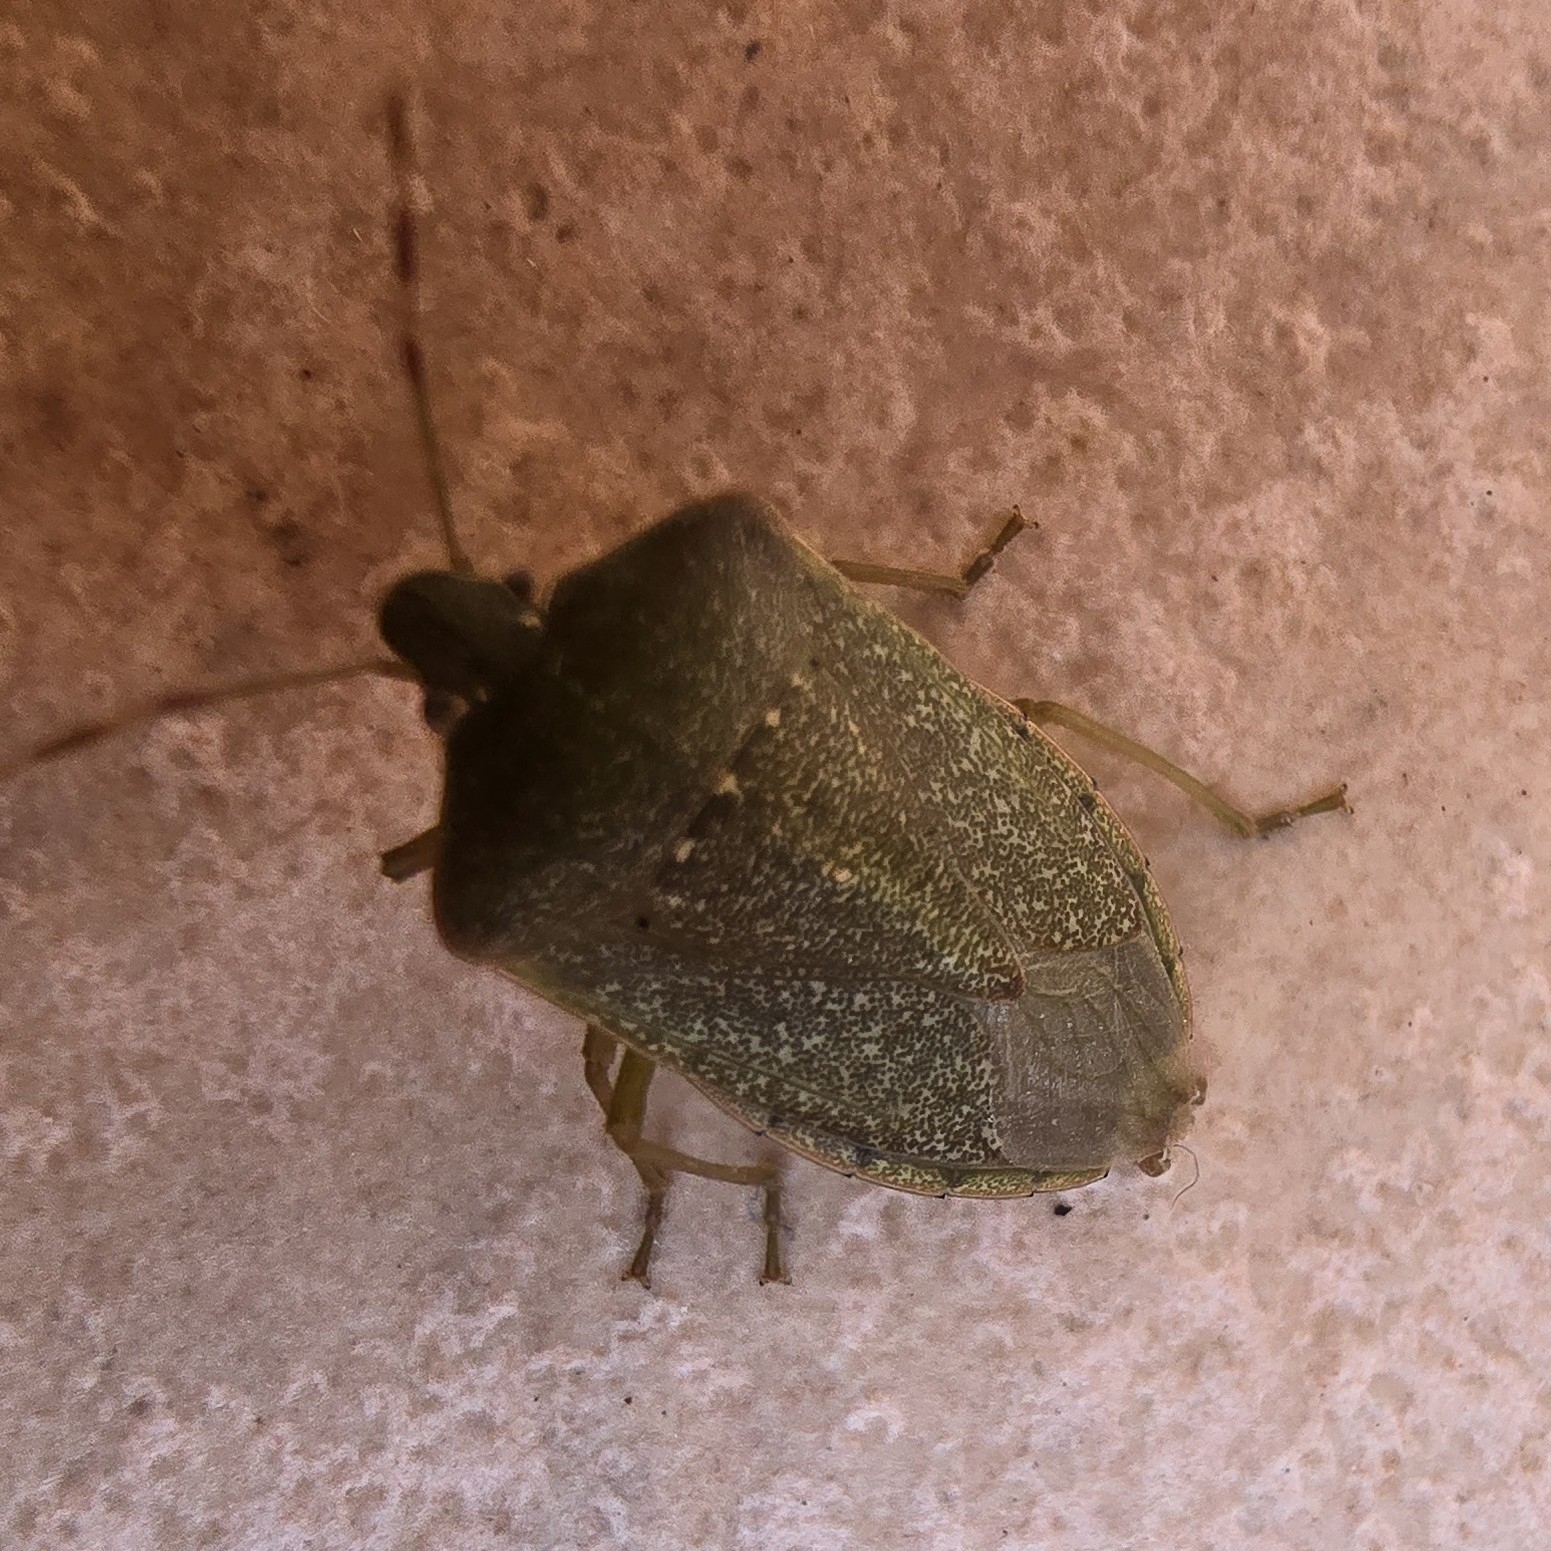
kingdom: Animalia
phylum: Arthropoda
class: Insecta
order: Hemiptera
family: Pentatomidae
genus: Nezara
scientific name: Nezara viridula
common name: Southern green stink bug
